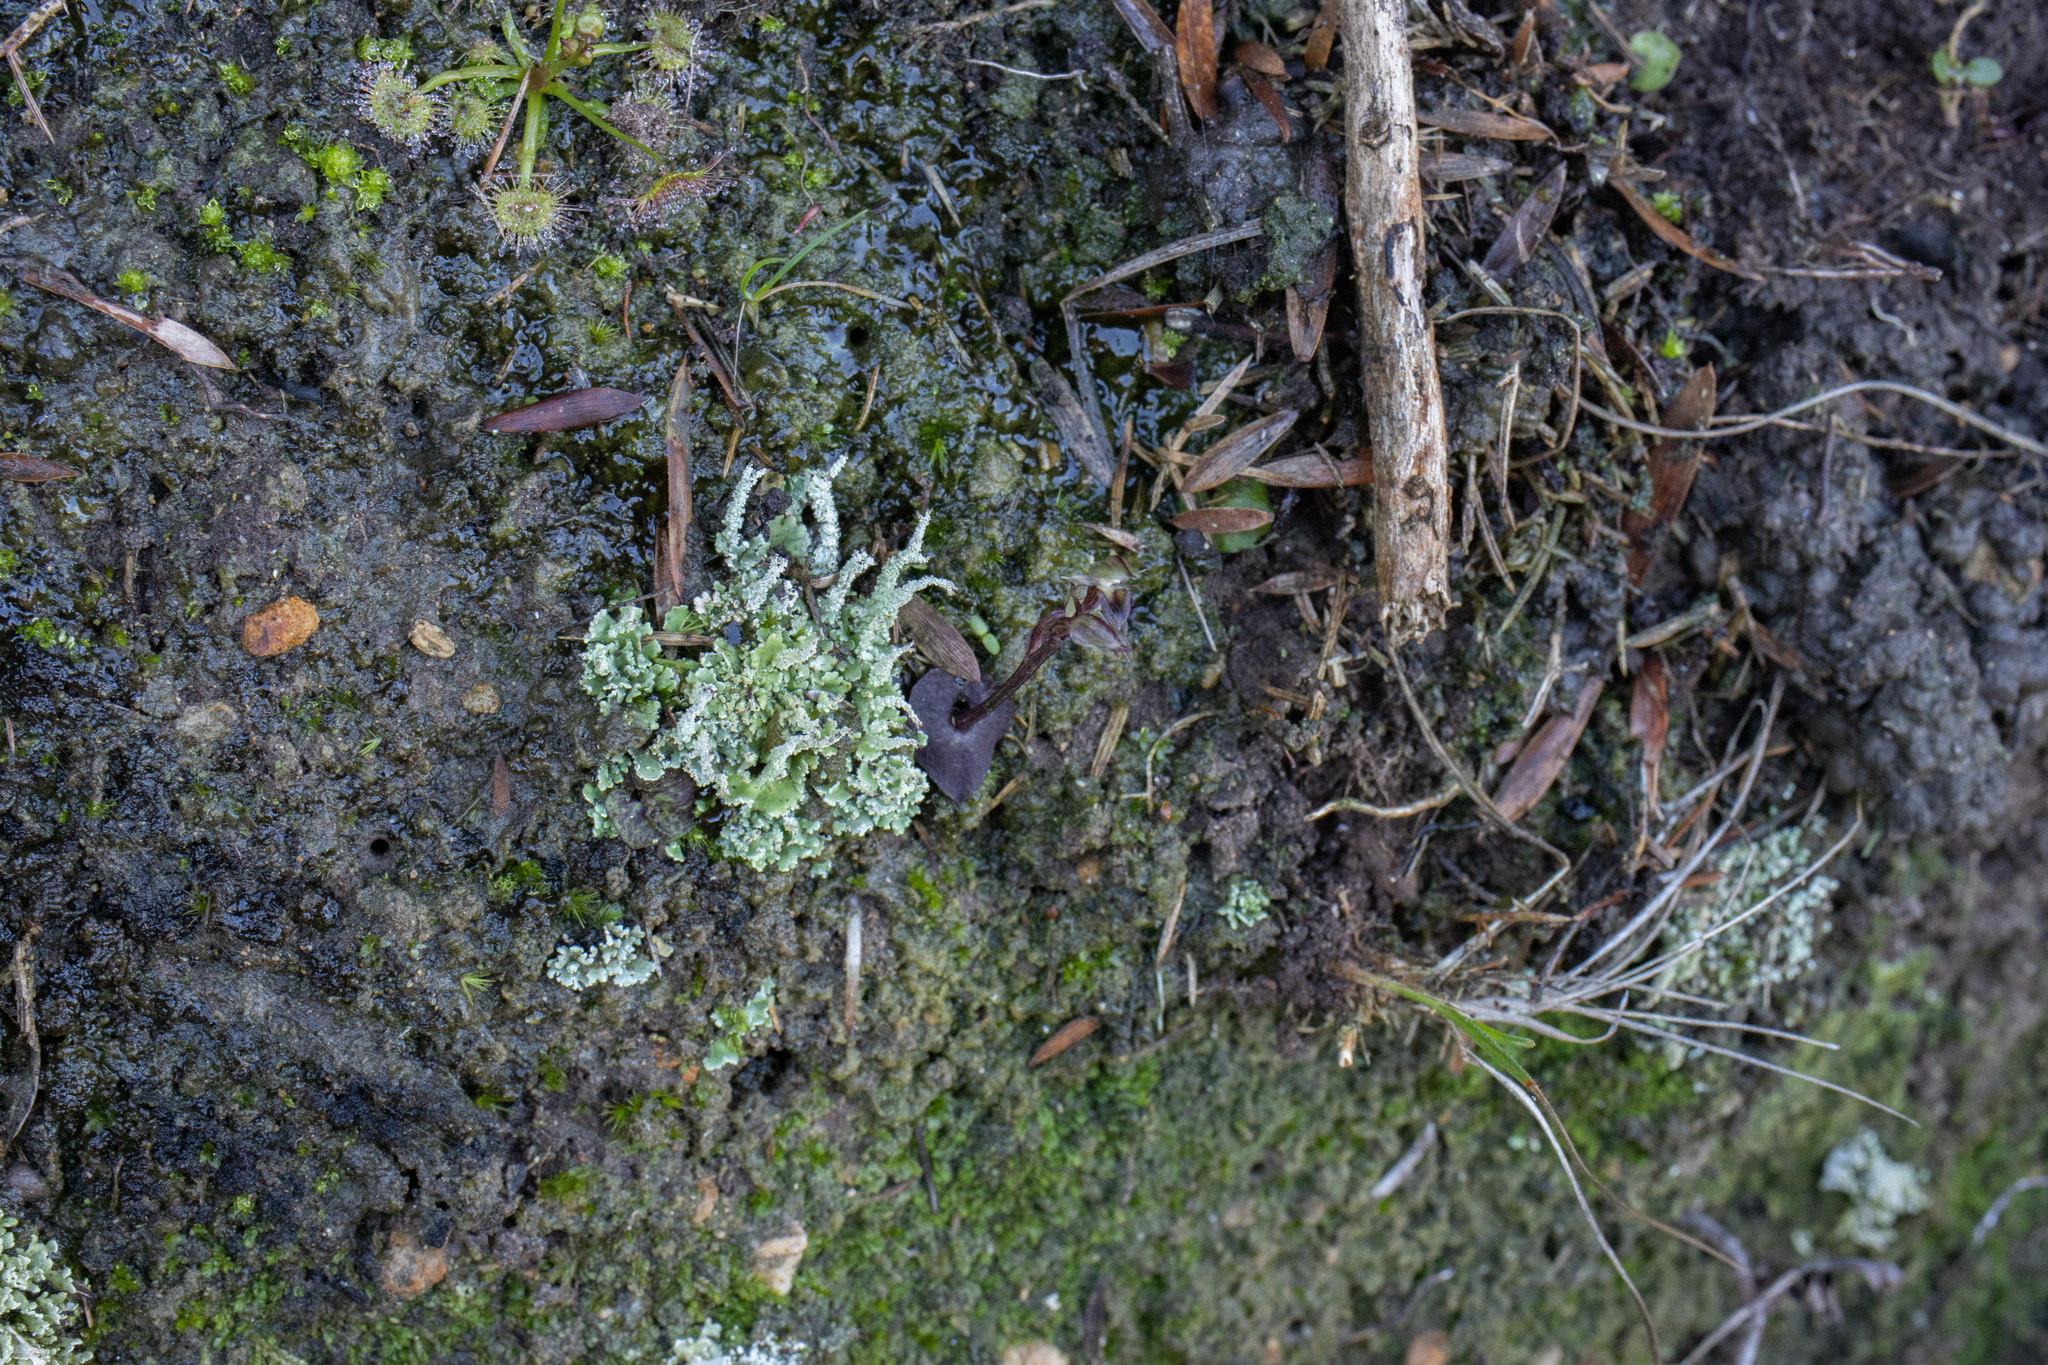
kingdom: Plantae
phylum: Tracheophyta
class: Liliopsida
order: Asparagales
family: Orchidaceae
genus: Acianthus
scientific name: Acianthus sinclairii
